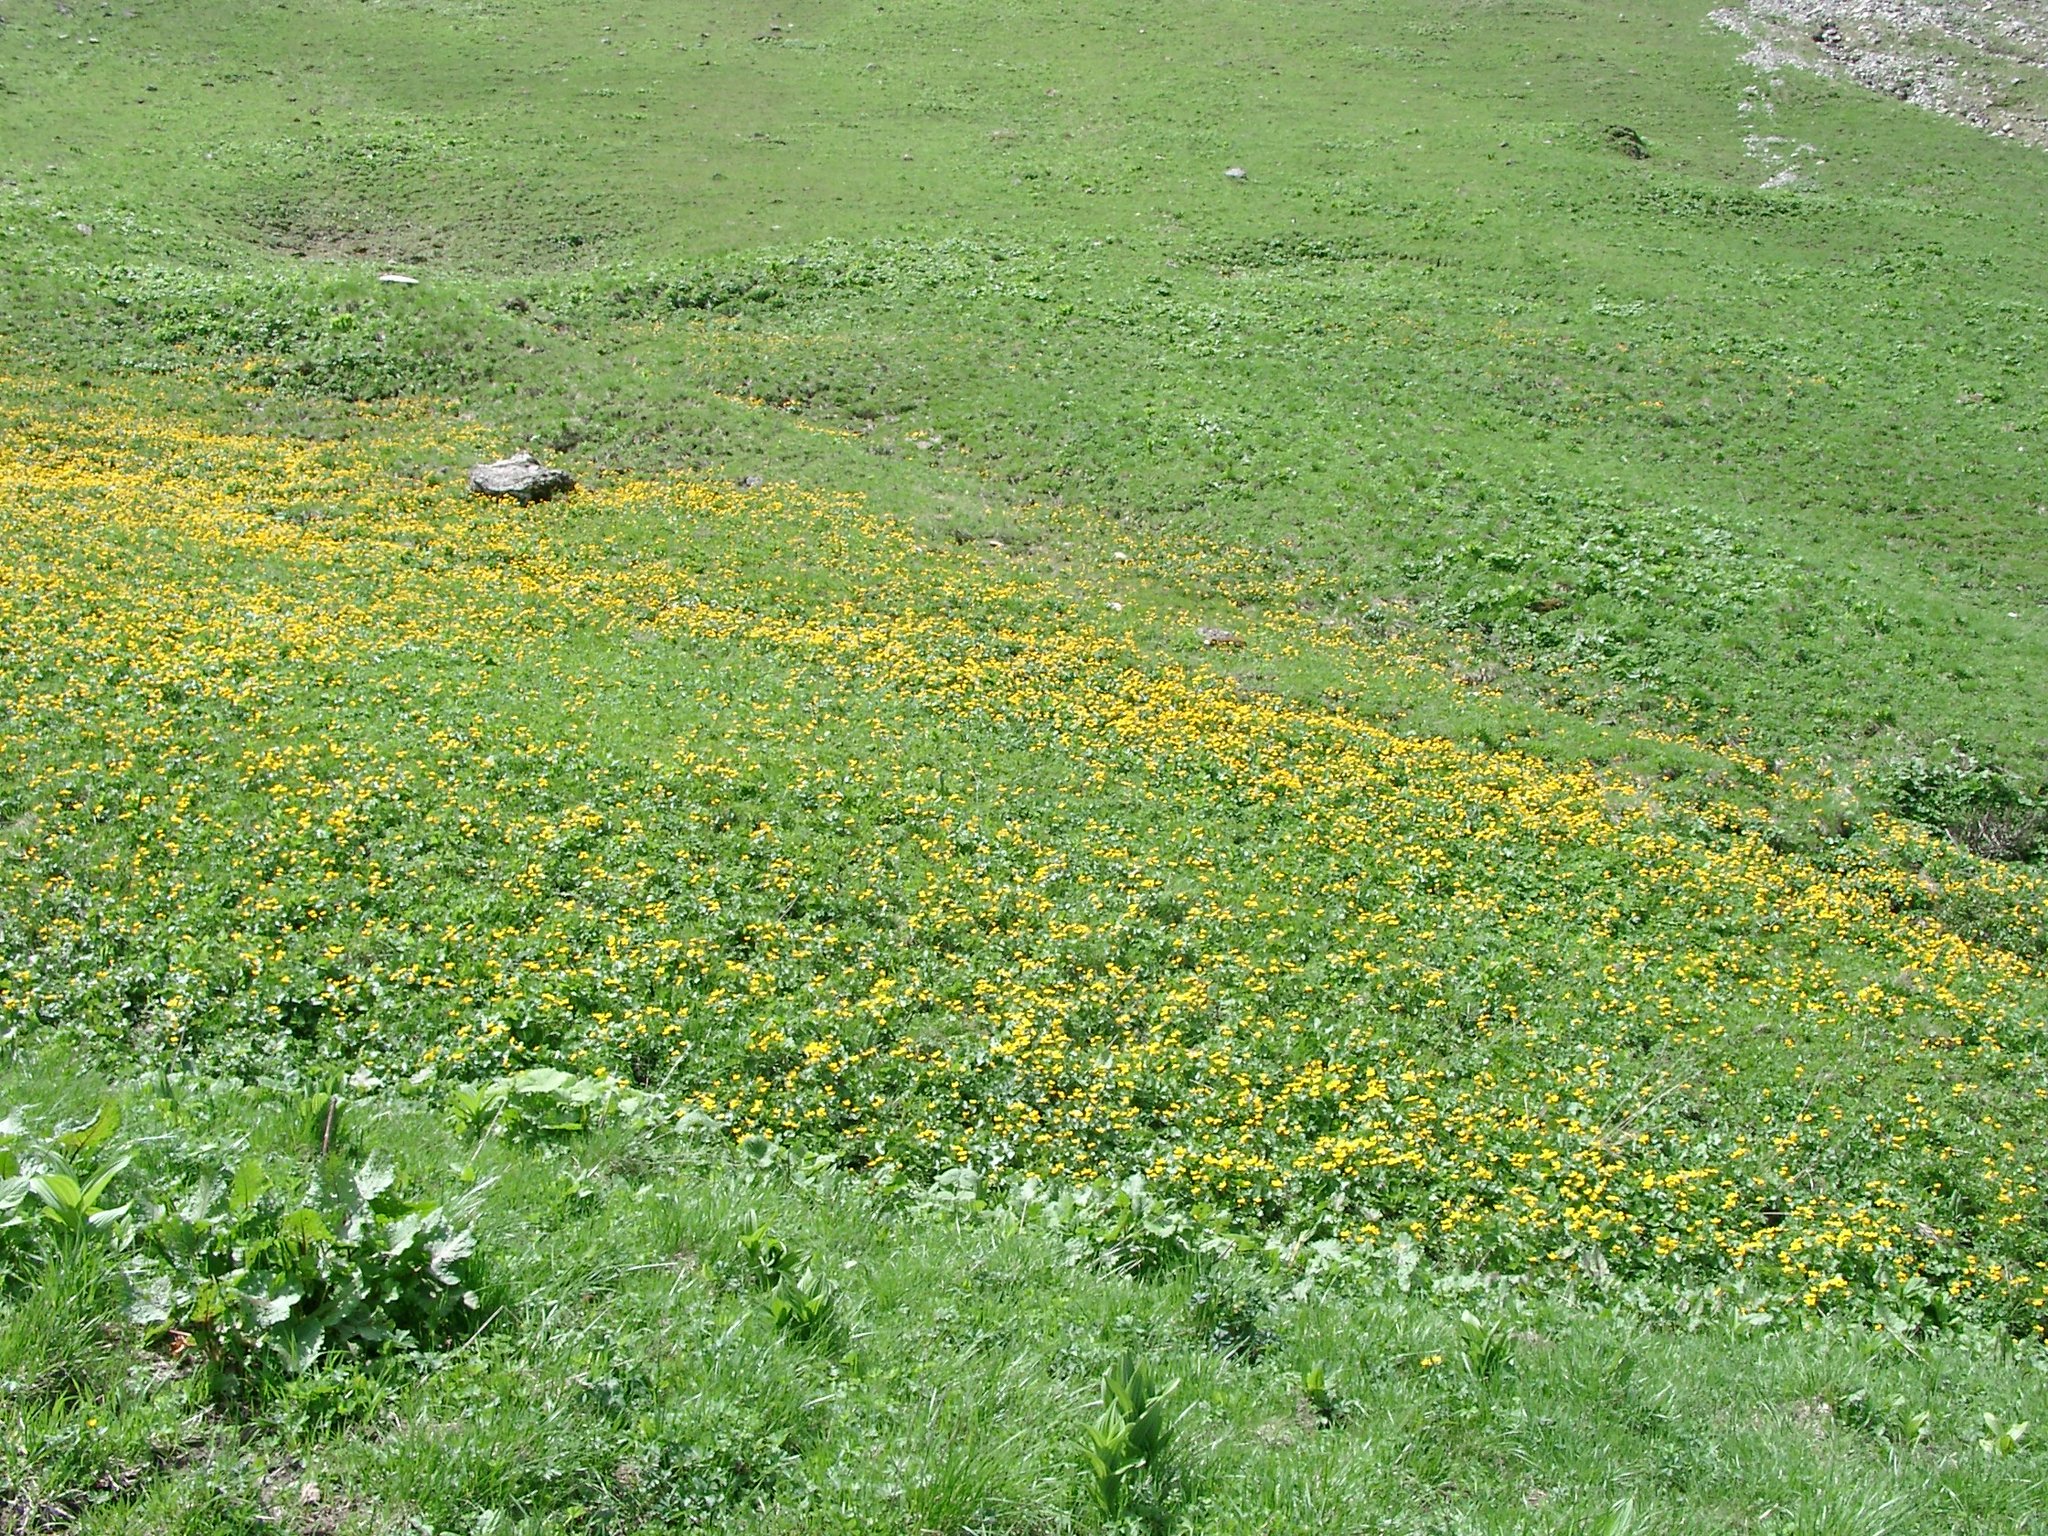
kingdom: Plantae
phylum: Tracheophyta
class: Magnoliopsida
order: Ranunculales
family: Ranunculaceae
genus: Caltha
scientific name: Caltha palustris
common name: Marsh marigold
